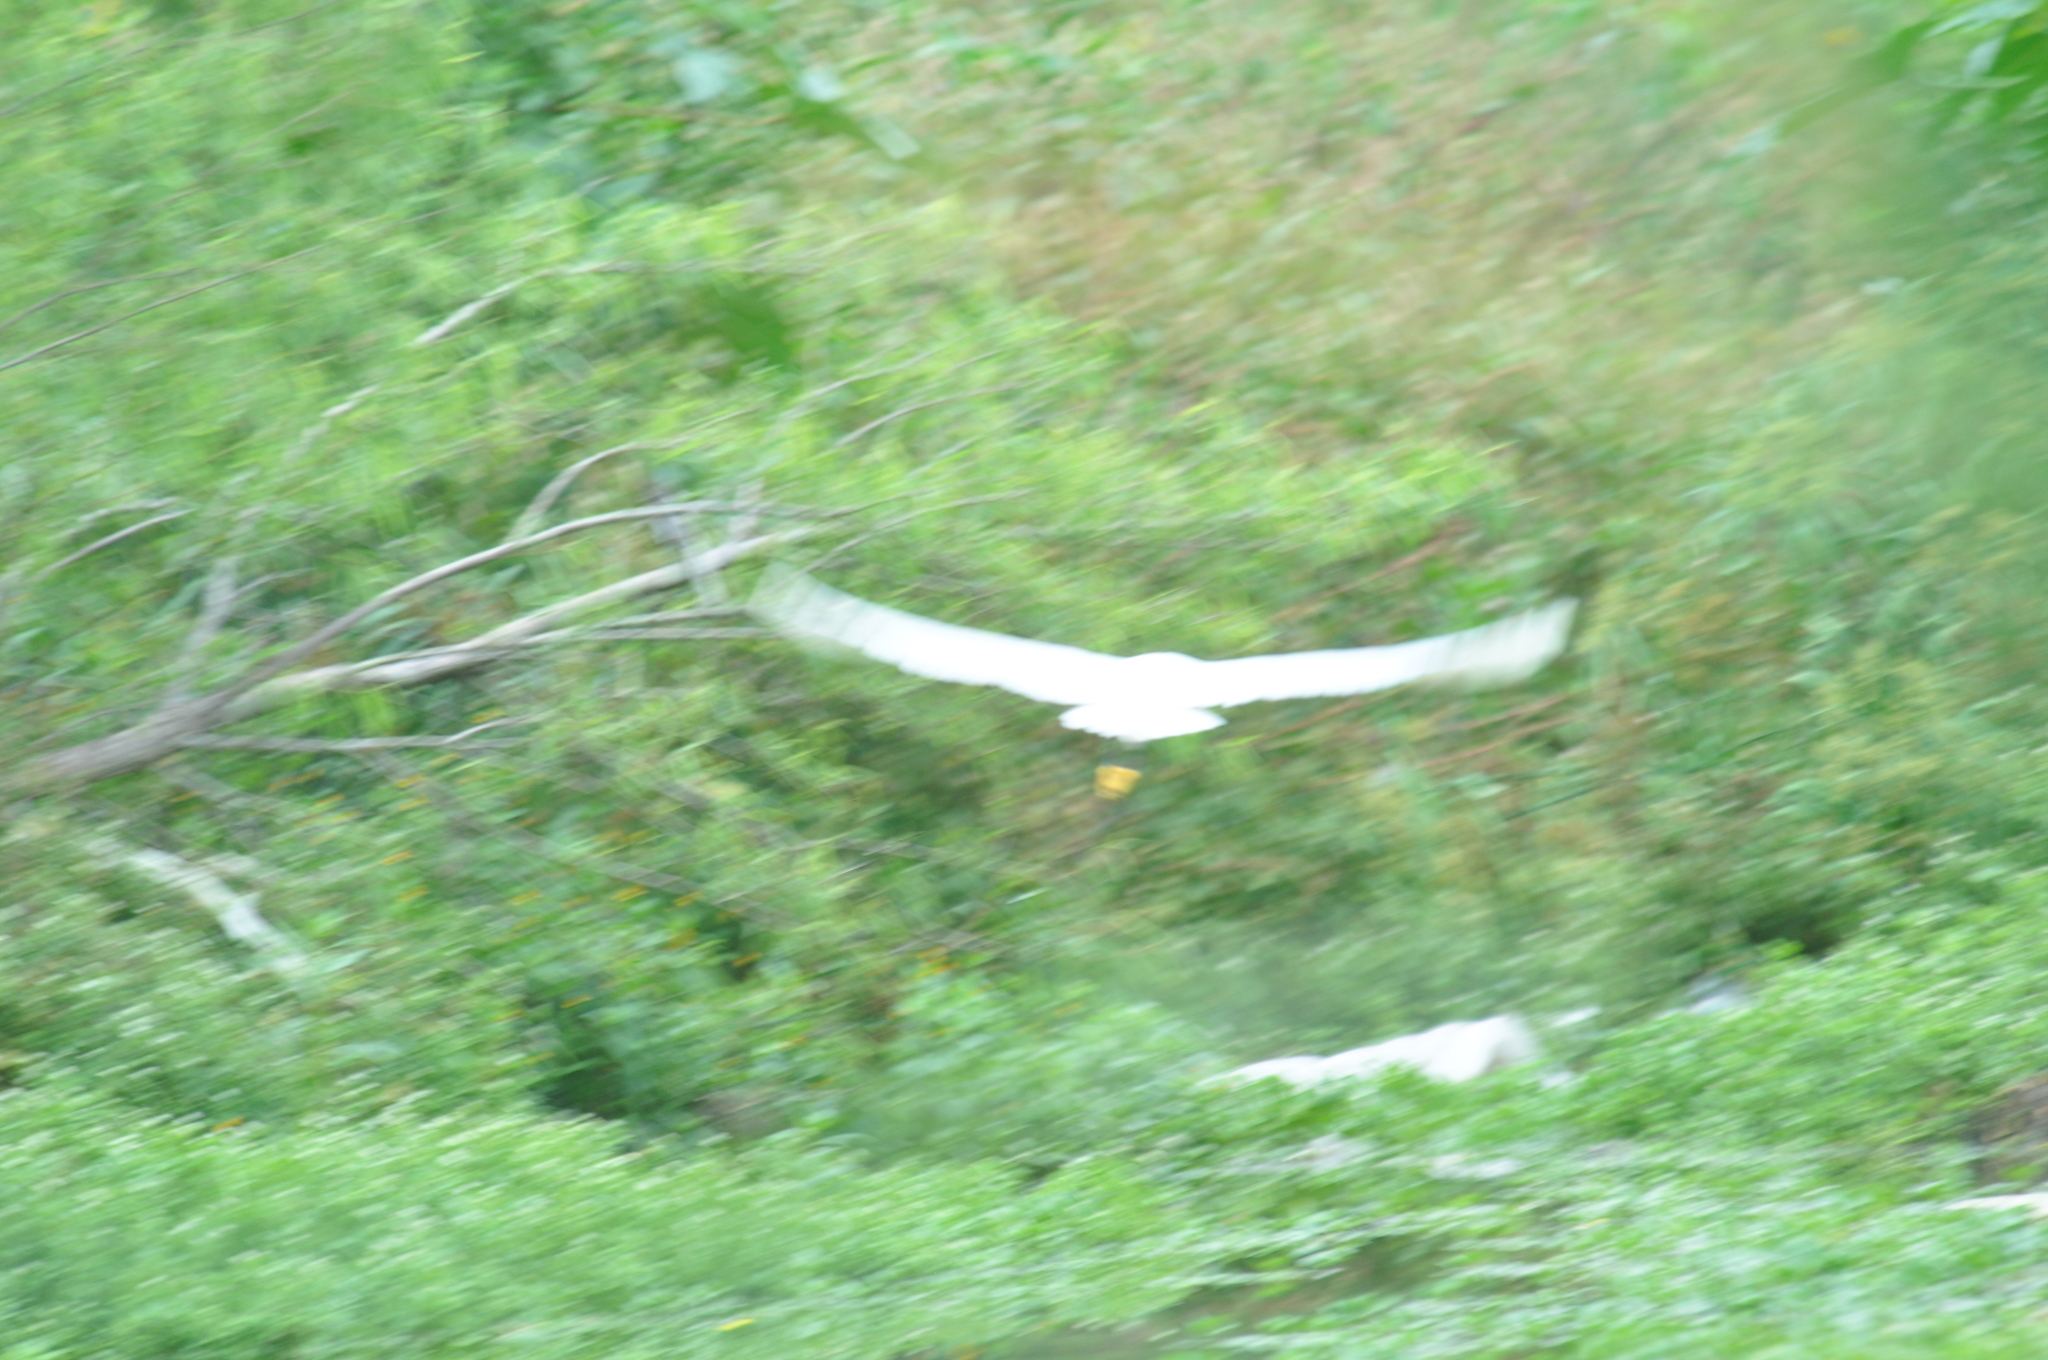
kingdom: Animalia
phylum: Chordata
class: Aves
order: Pelecaniformes
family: Ardeidae
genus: Egretta
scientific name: Egretta thula
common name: Snowy egret
